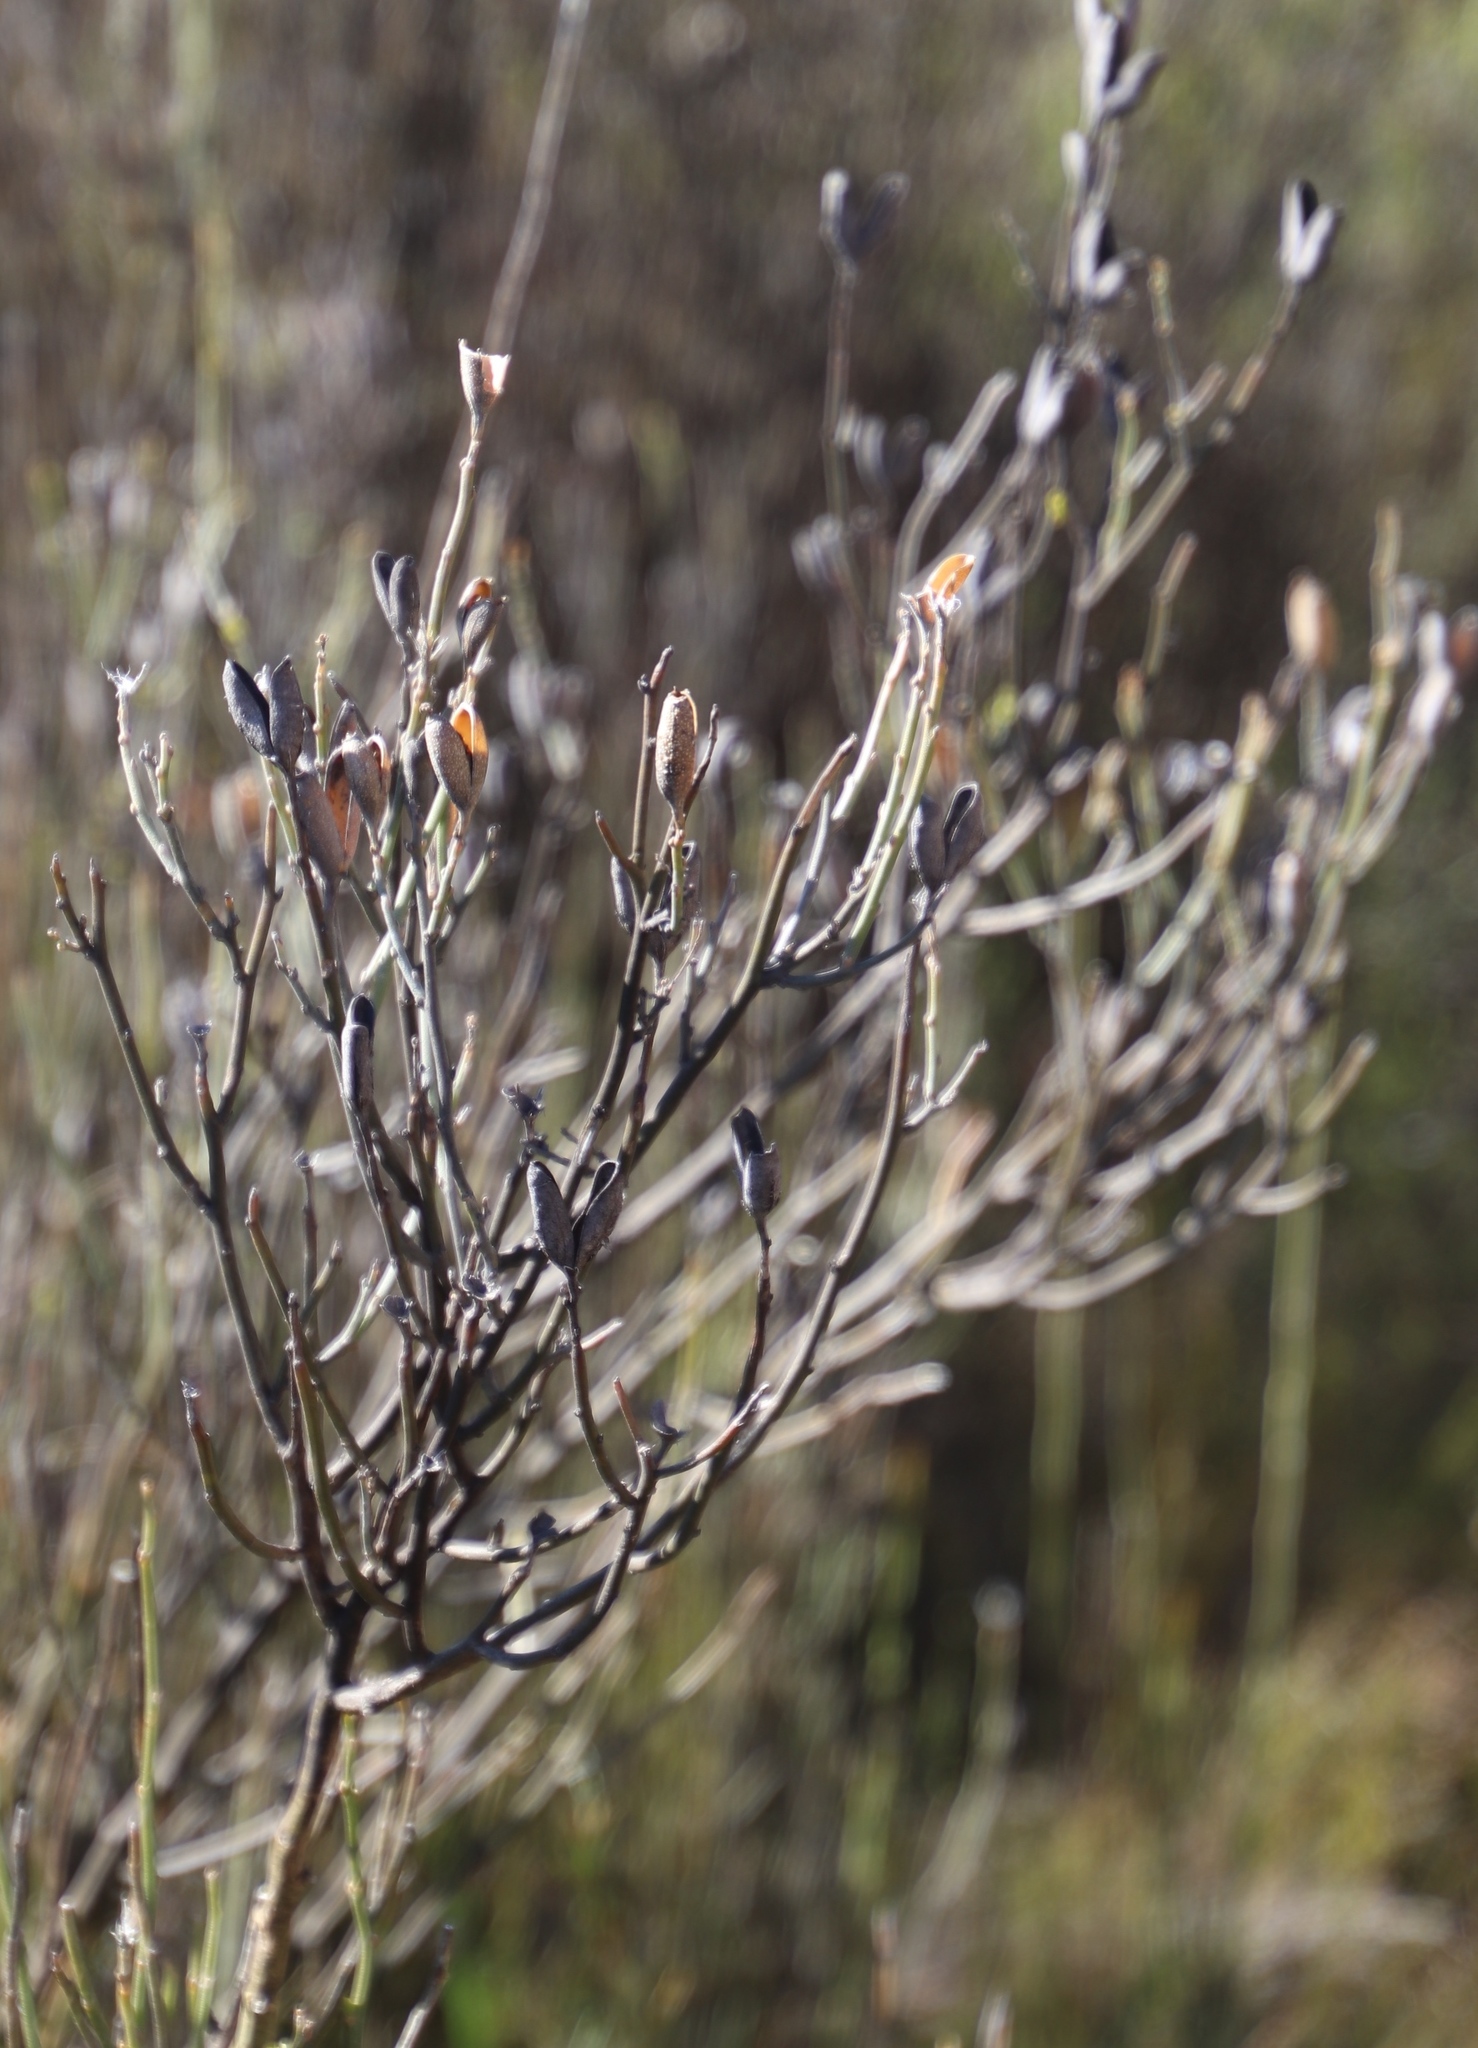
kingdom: Plantae
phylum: Tracheophyta
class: Magnoliopsida
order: Solanales
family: Montiniaceae
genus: Montinia
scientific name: Montinia caryophyllacea
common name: Wild clove-bush
